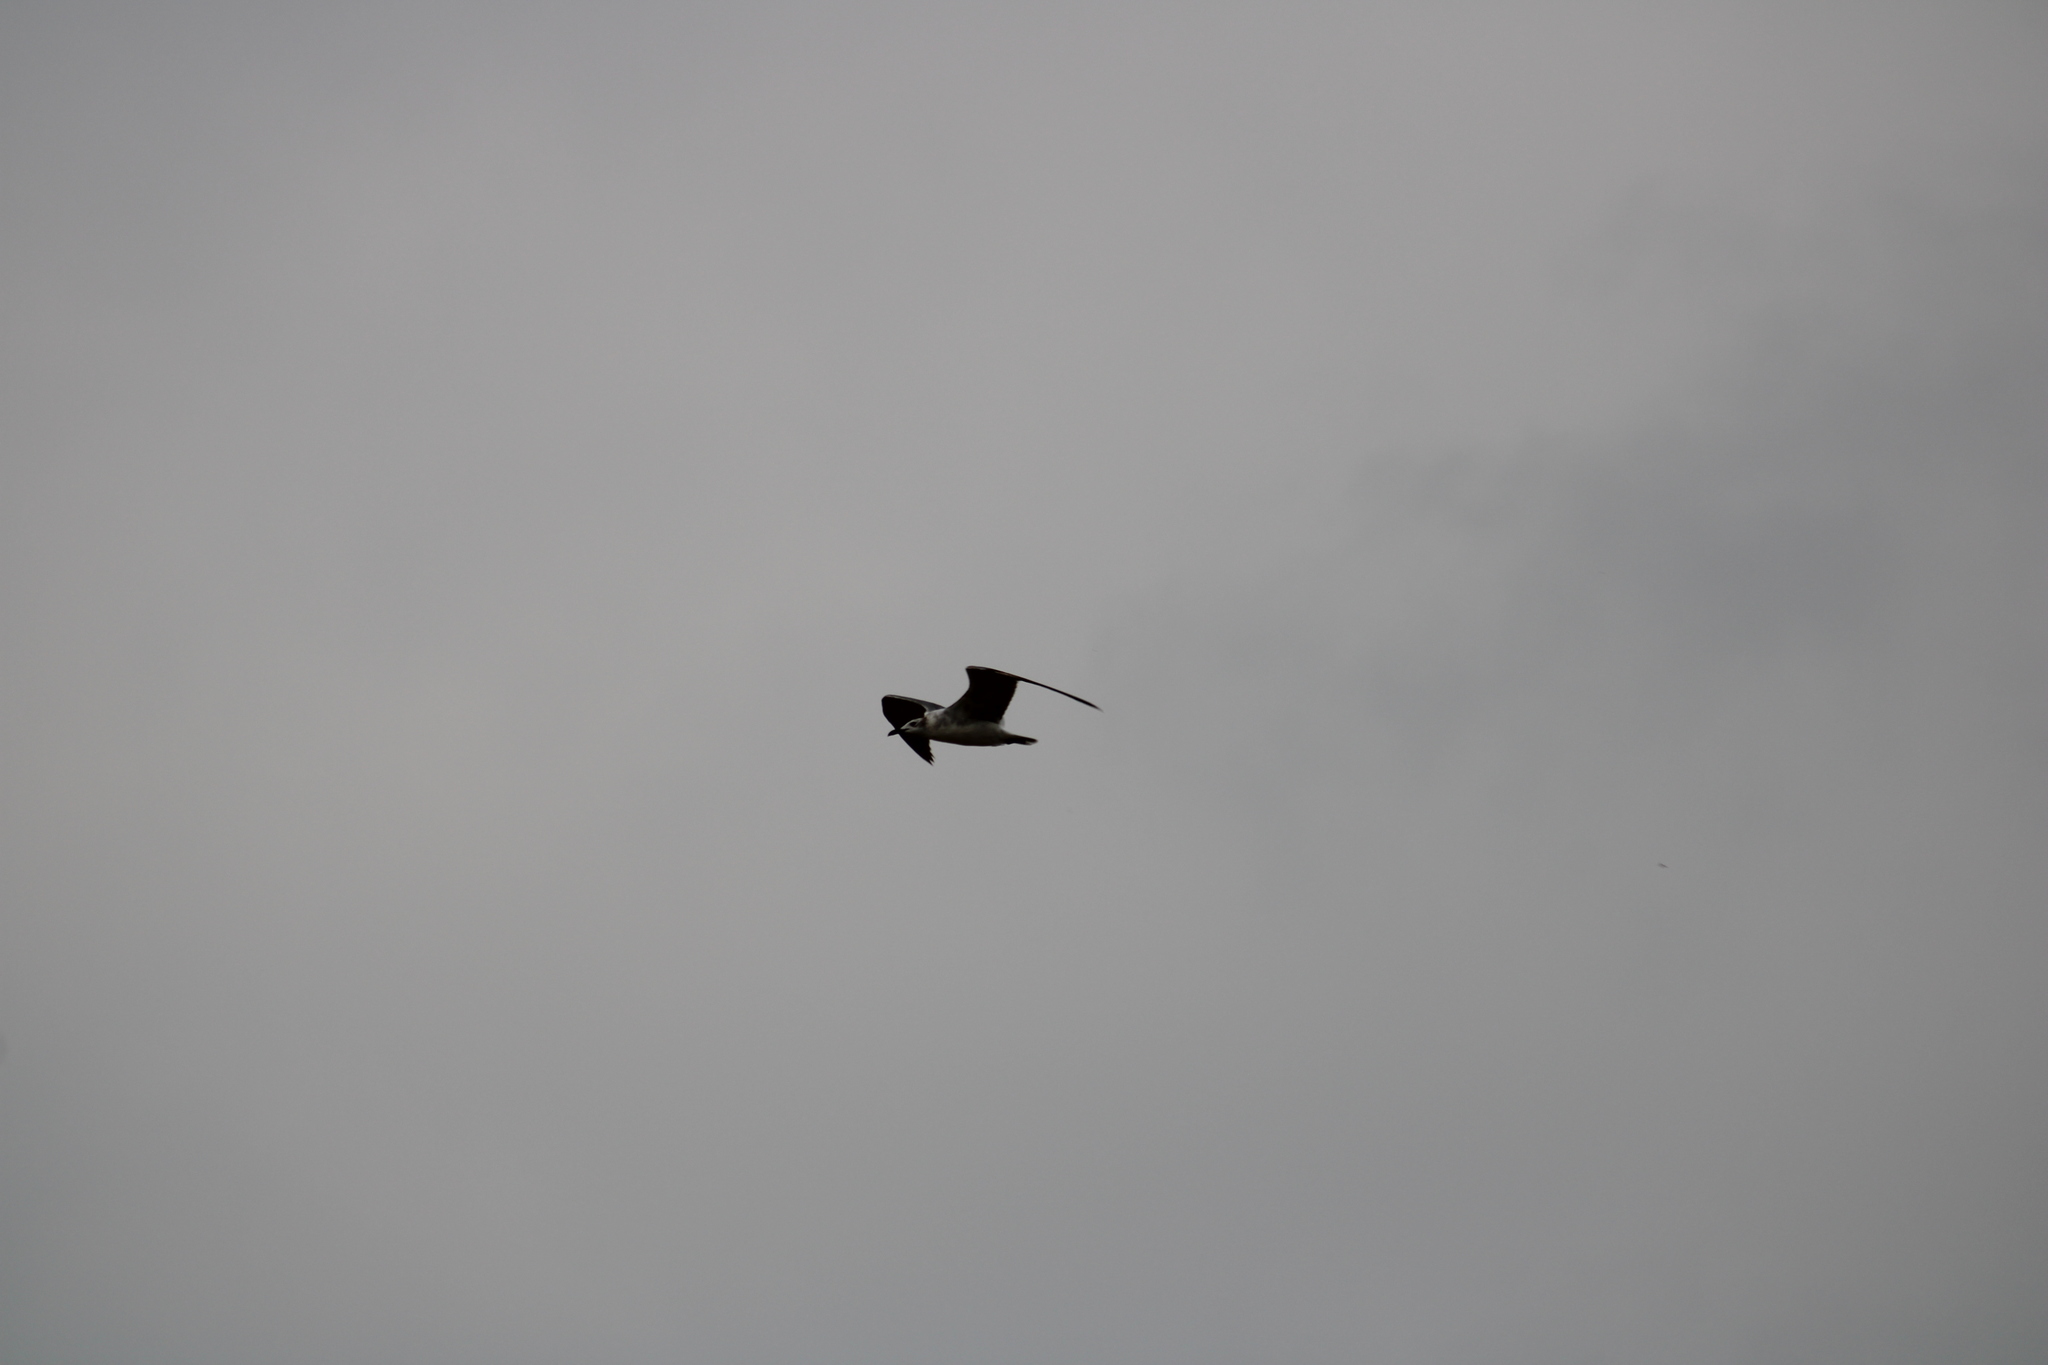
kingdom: Animalia
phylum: Chordata
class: Aves
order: Charadriiformes
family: Laridae
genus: Leucophaeus
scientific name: Leucophaeus atricilla
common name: Laughing gull
